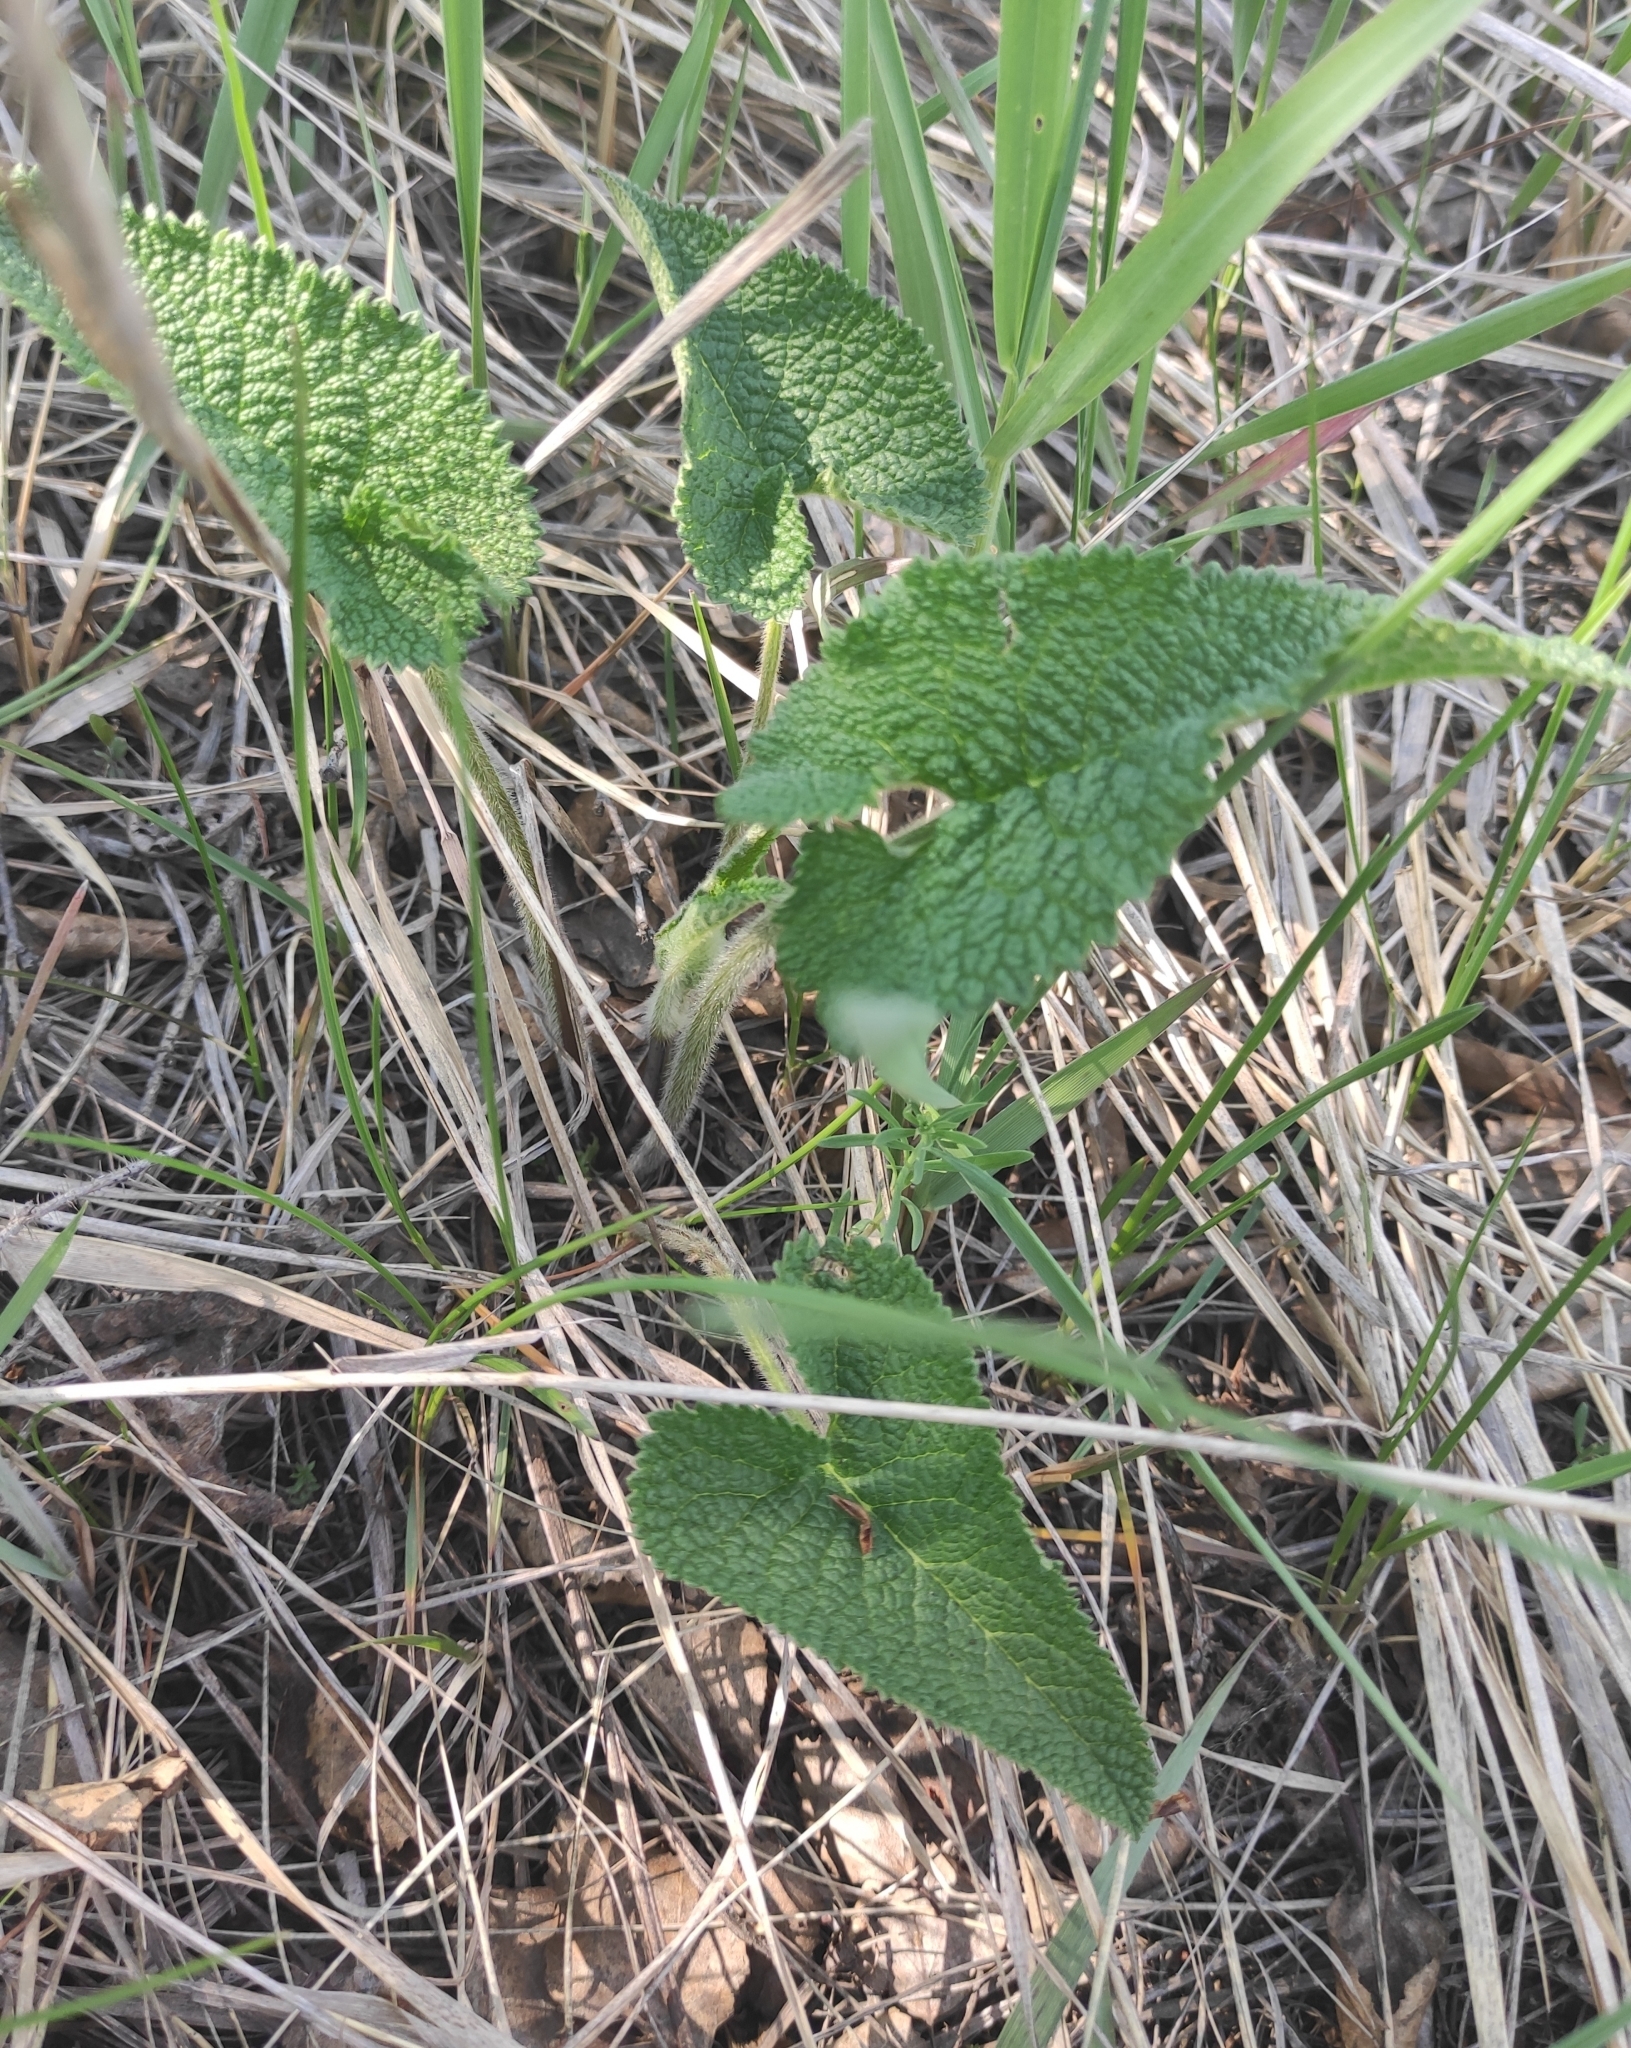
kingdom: Plantae
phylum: Tracheophyta
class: Magnoliopsida
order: Lamiales
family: Lamiaceae
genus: Phlomoides
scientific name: Phlomoides tuberosa
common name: Tuberous jerusalem sage
